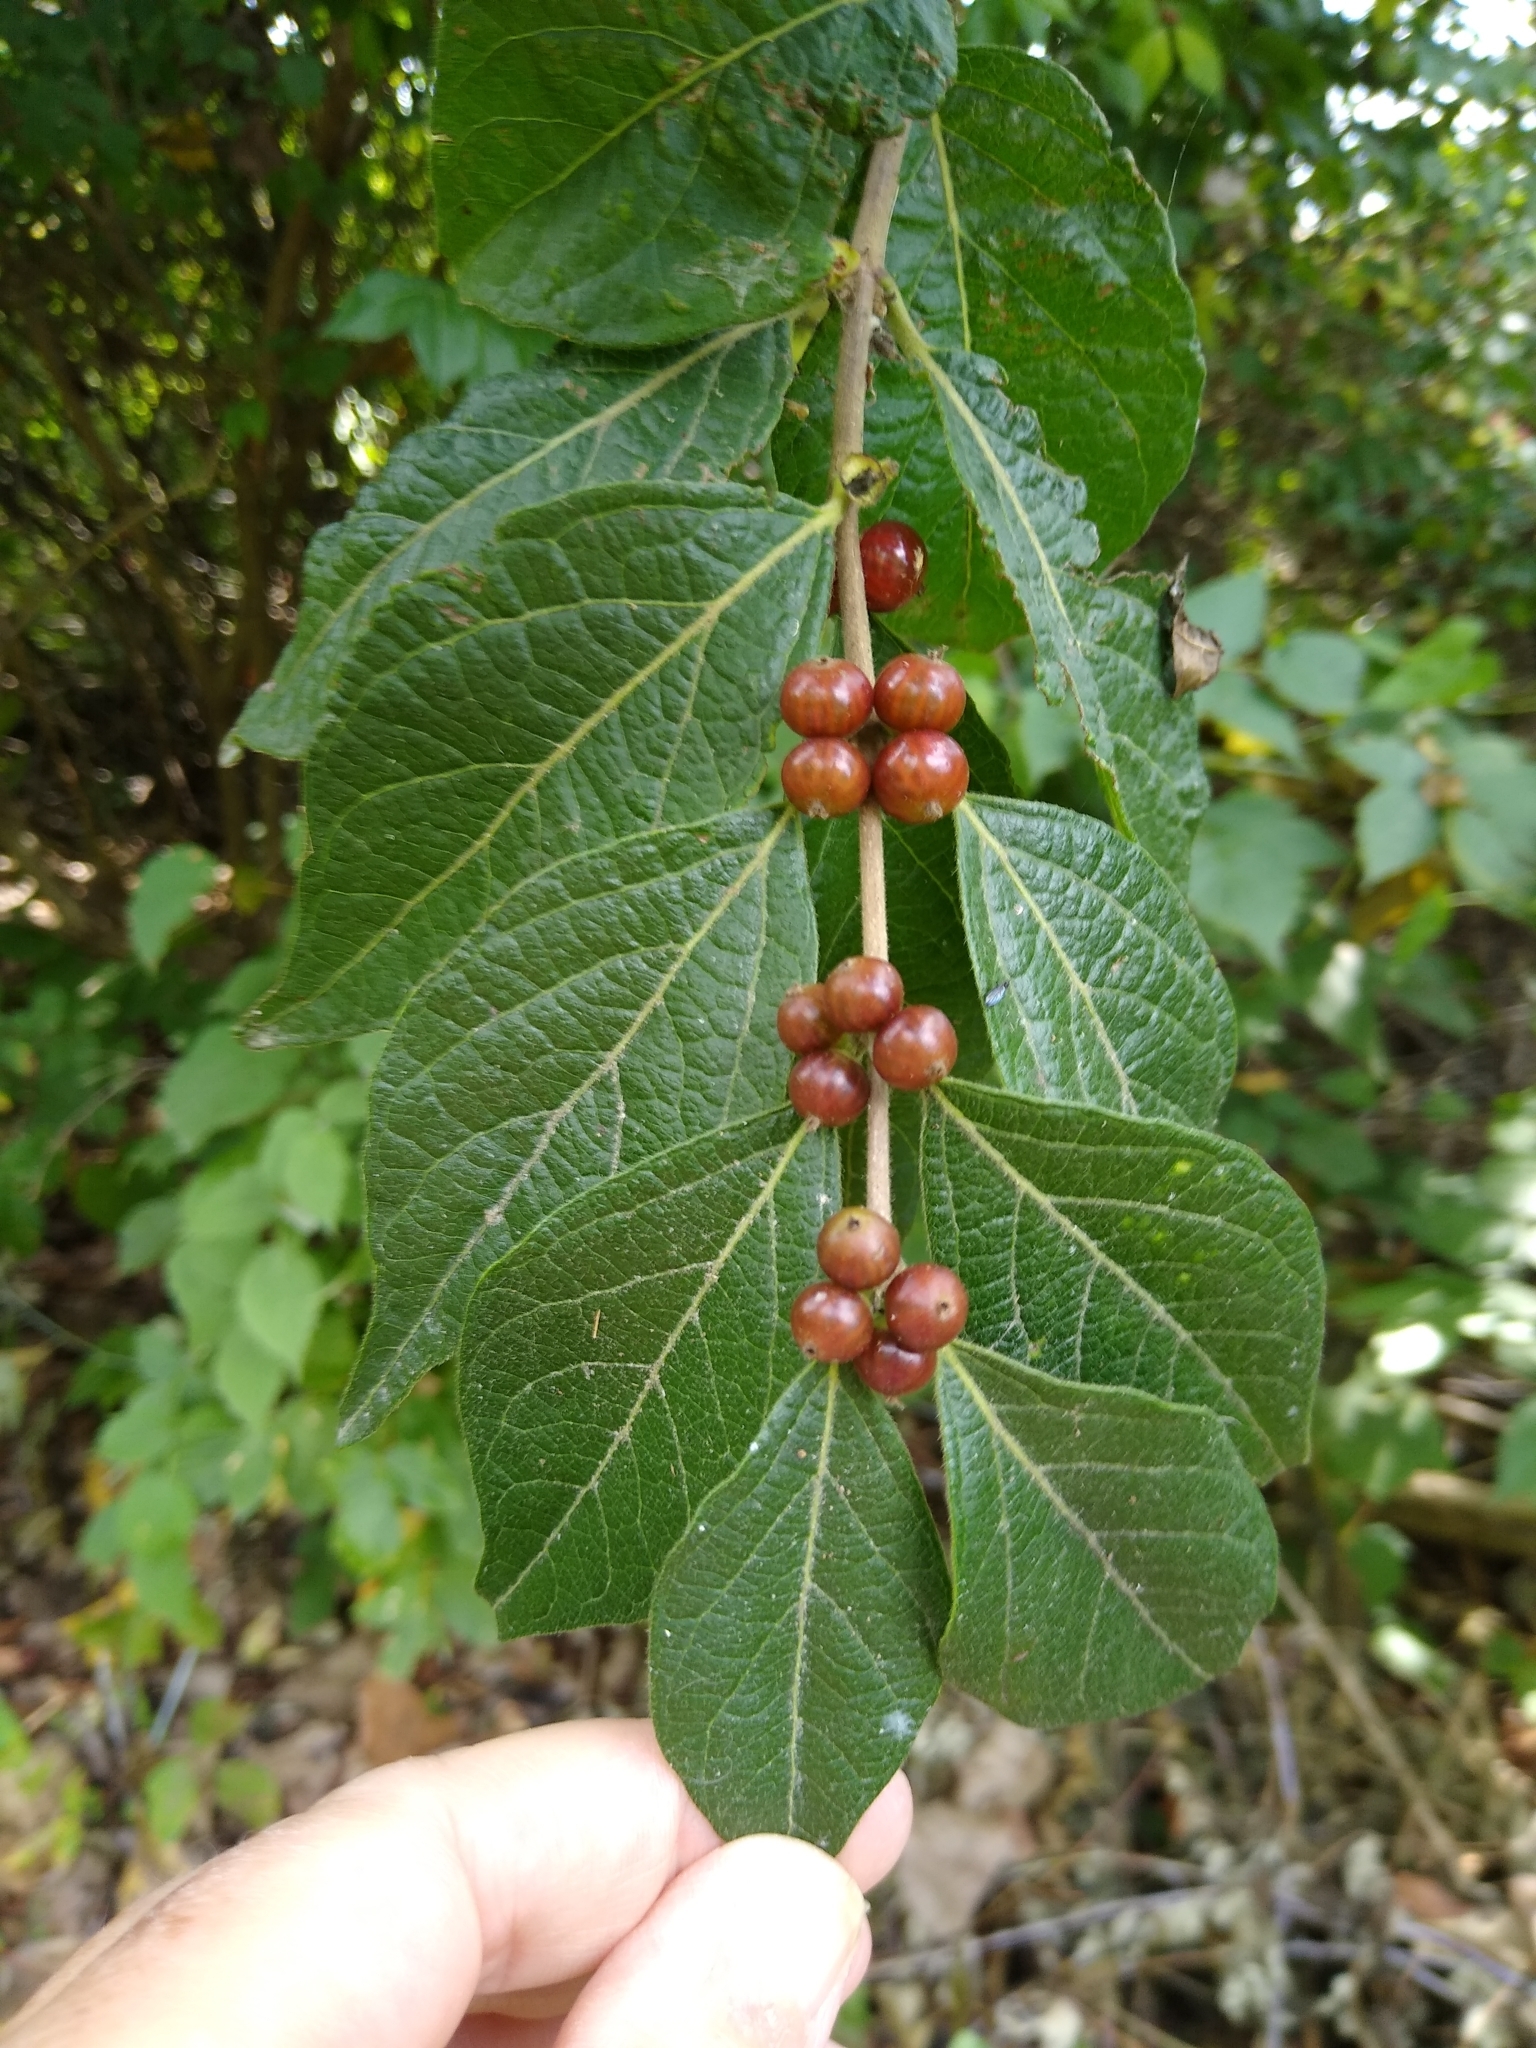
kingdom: Plantae
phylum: Tracheophyta
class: Magnoliopsida
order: Dipsacales
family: Caprifoliaceae
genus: Lonicera
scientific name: Lonicera maackii
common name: Amur honeysuckle
